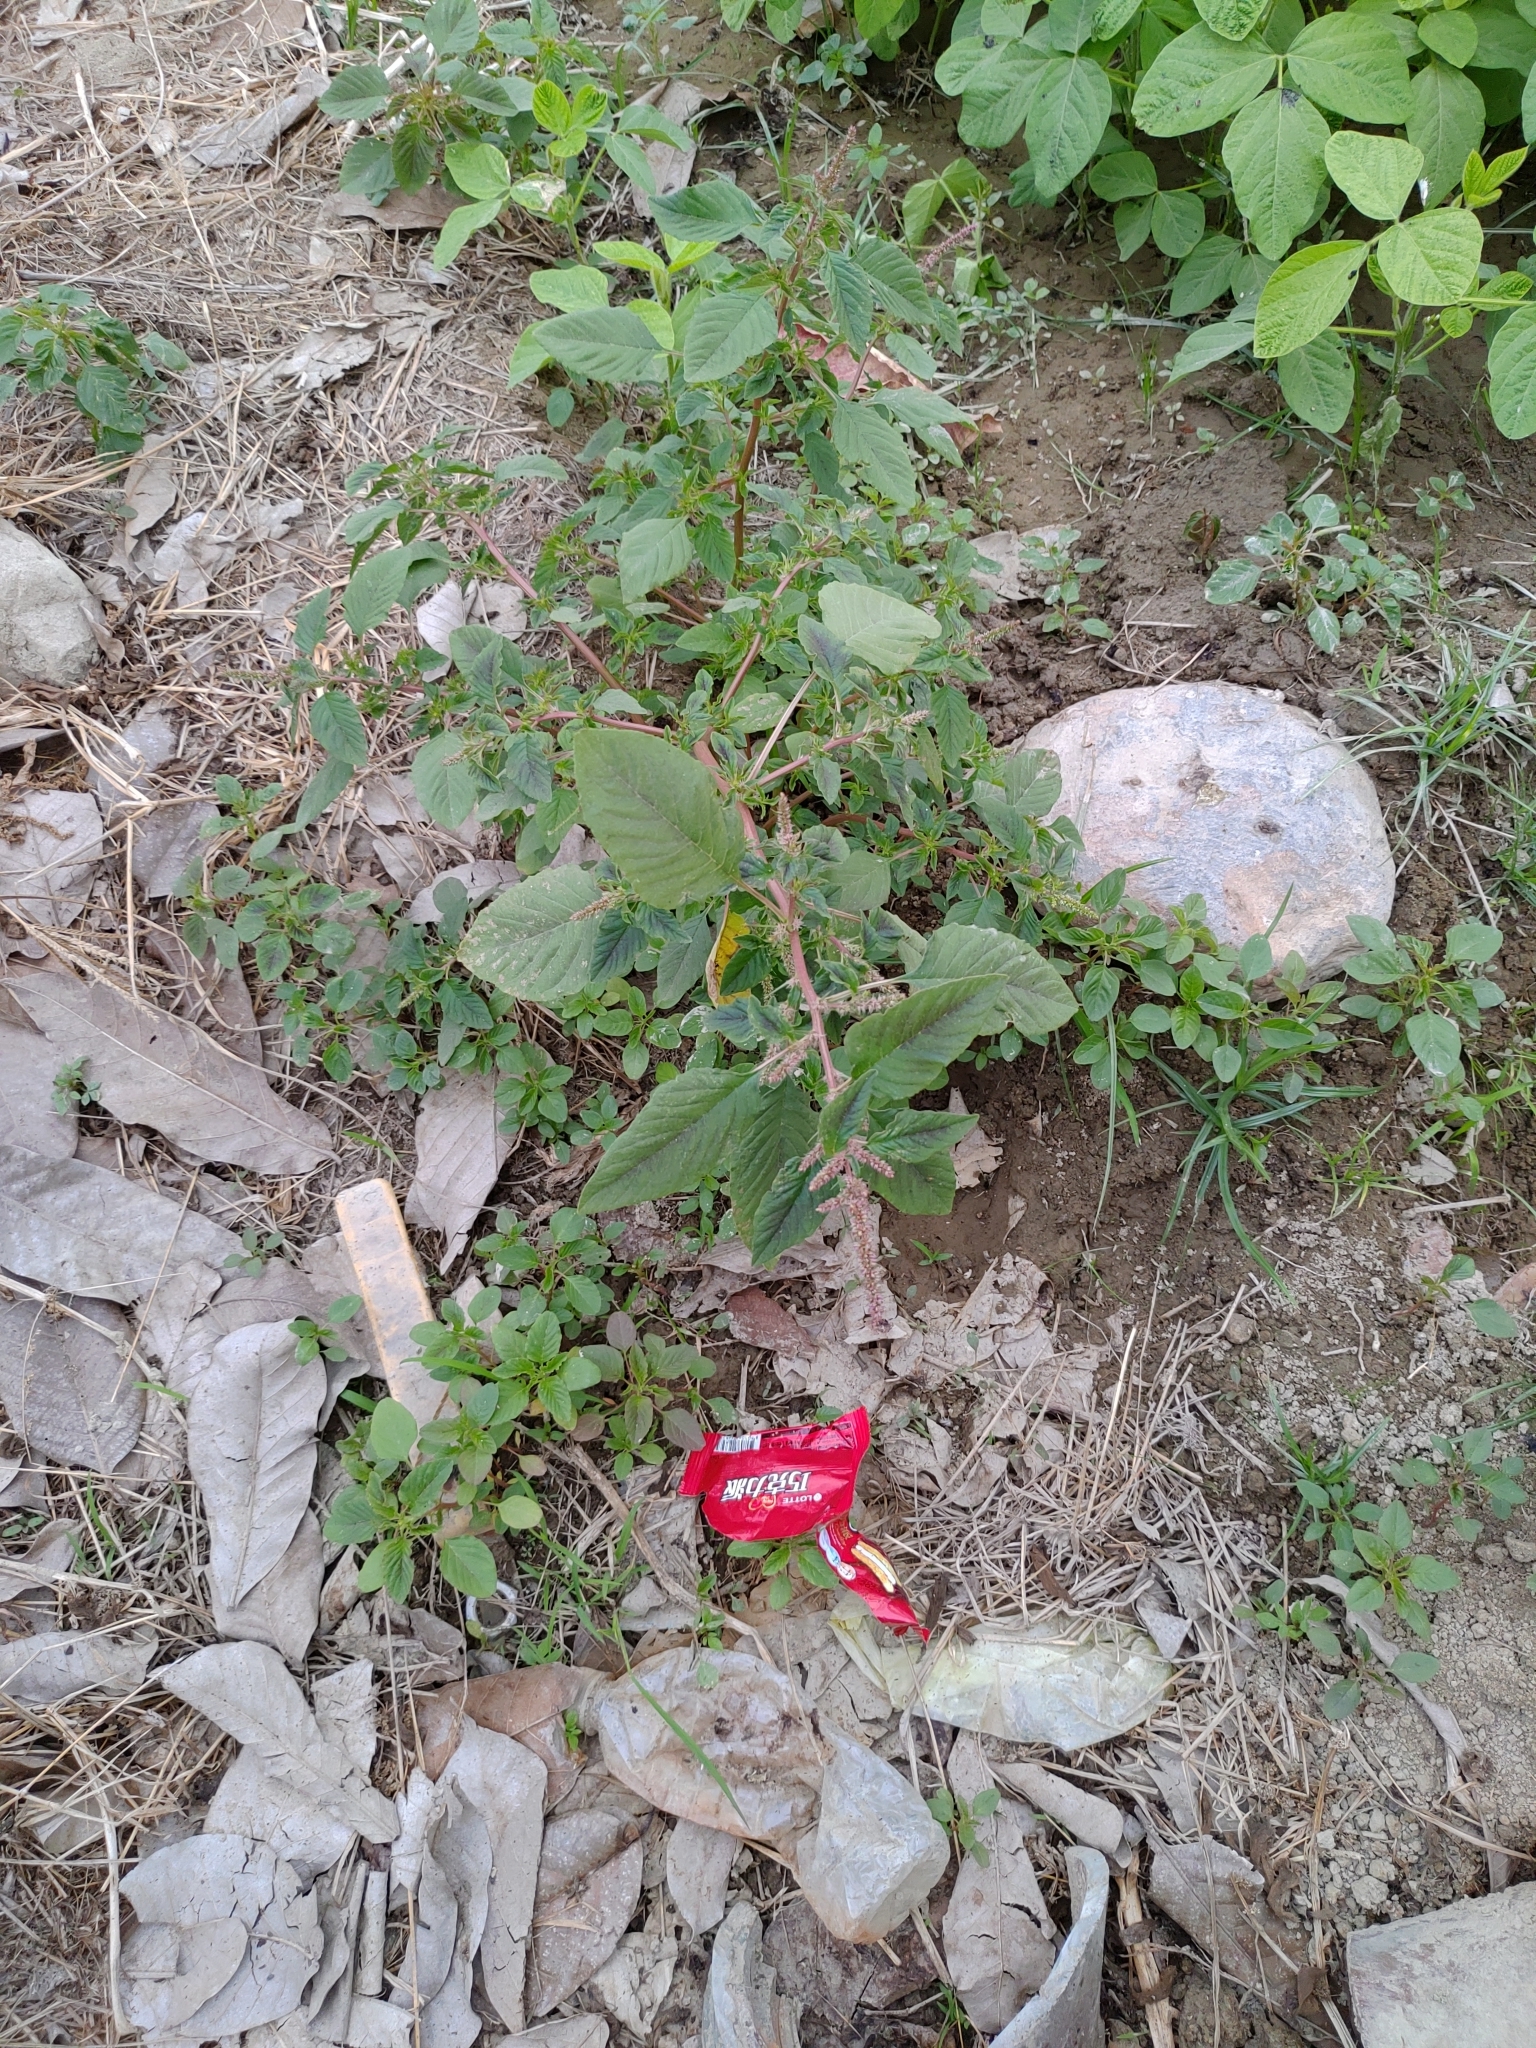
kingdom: Plantae
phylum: Tracheophyta
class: Magnoliopsida
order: Caryophyllales
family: Amaranthaceae
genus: Amaranthus
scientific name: Amaranthus viridis
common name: Slender amaranth
